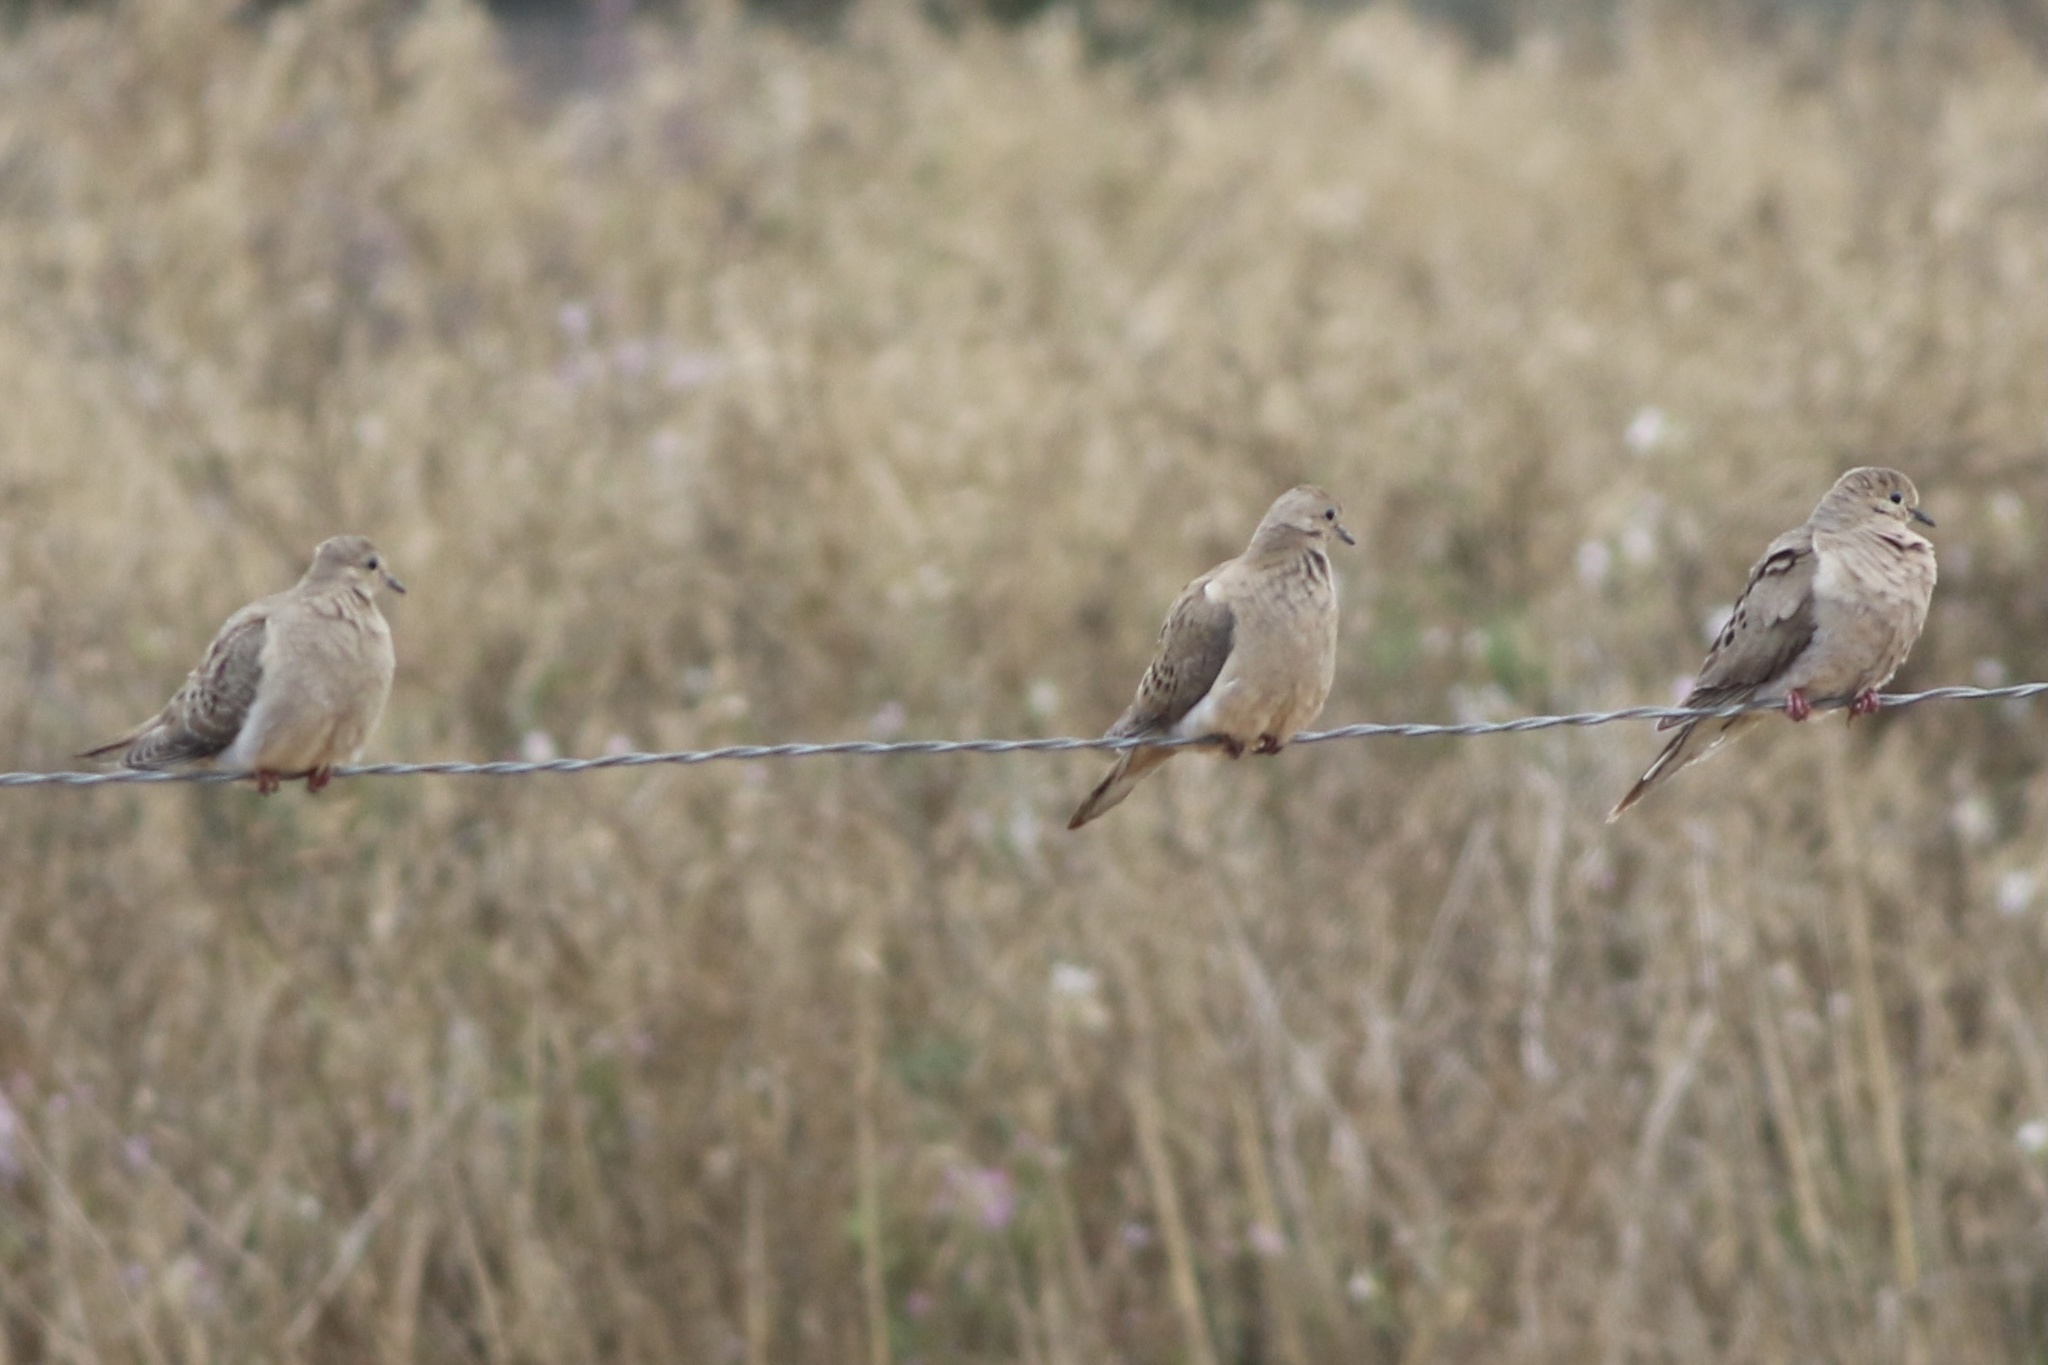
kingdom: Animalia
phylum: Chordata
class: Aves
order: Columbiformes
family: Columbidae
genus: Zenaida
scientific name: Zenaida macroura
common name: Mourning dove
